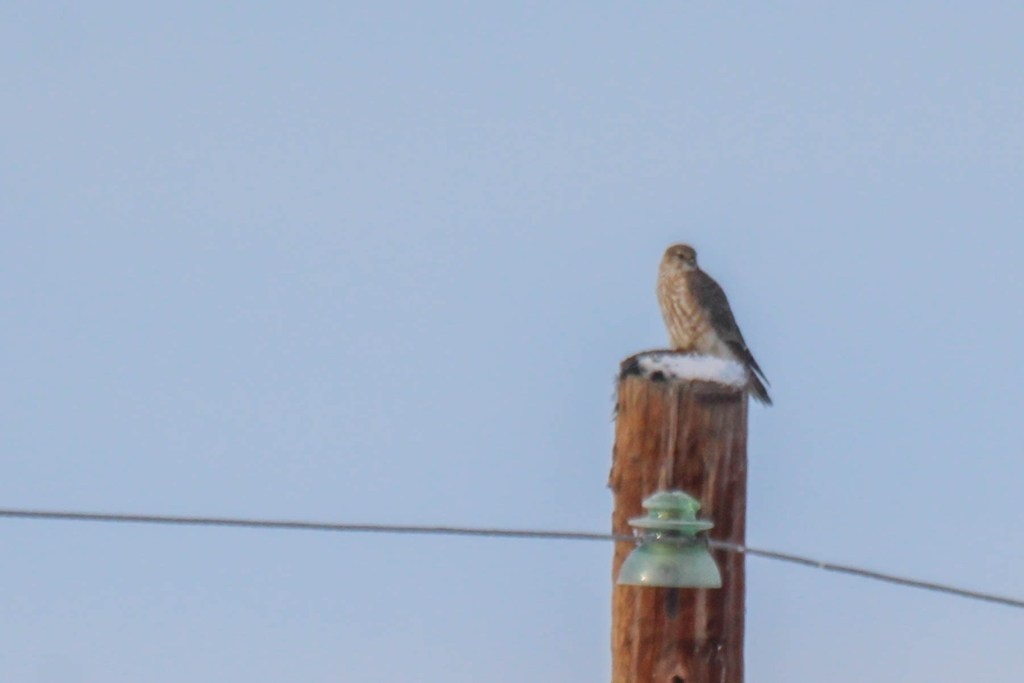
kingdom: Animalia
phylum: Chordata
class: Aves
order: Falconiformes
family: Falconidae
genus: Falco
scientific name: Falco columbarius
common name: Merlin
